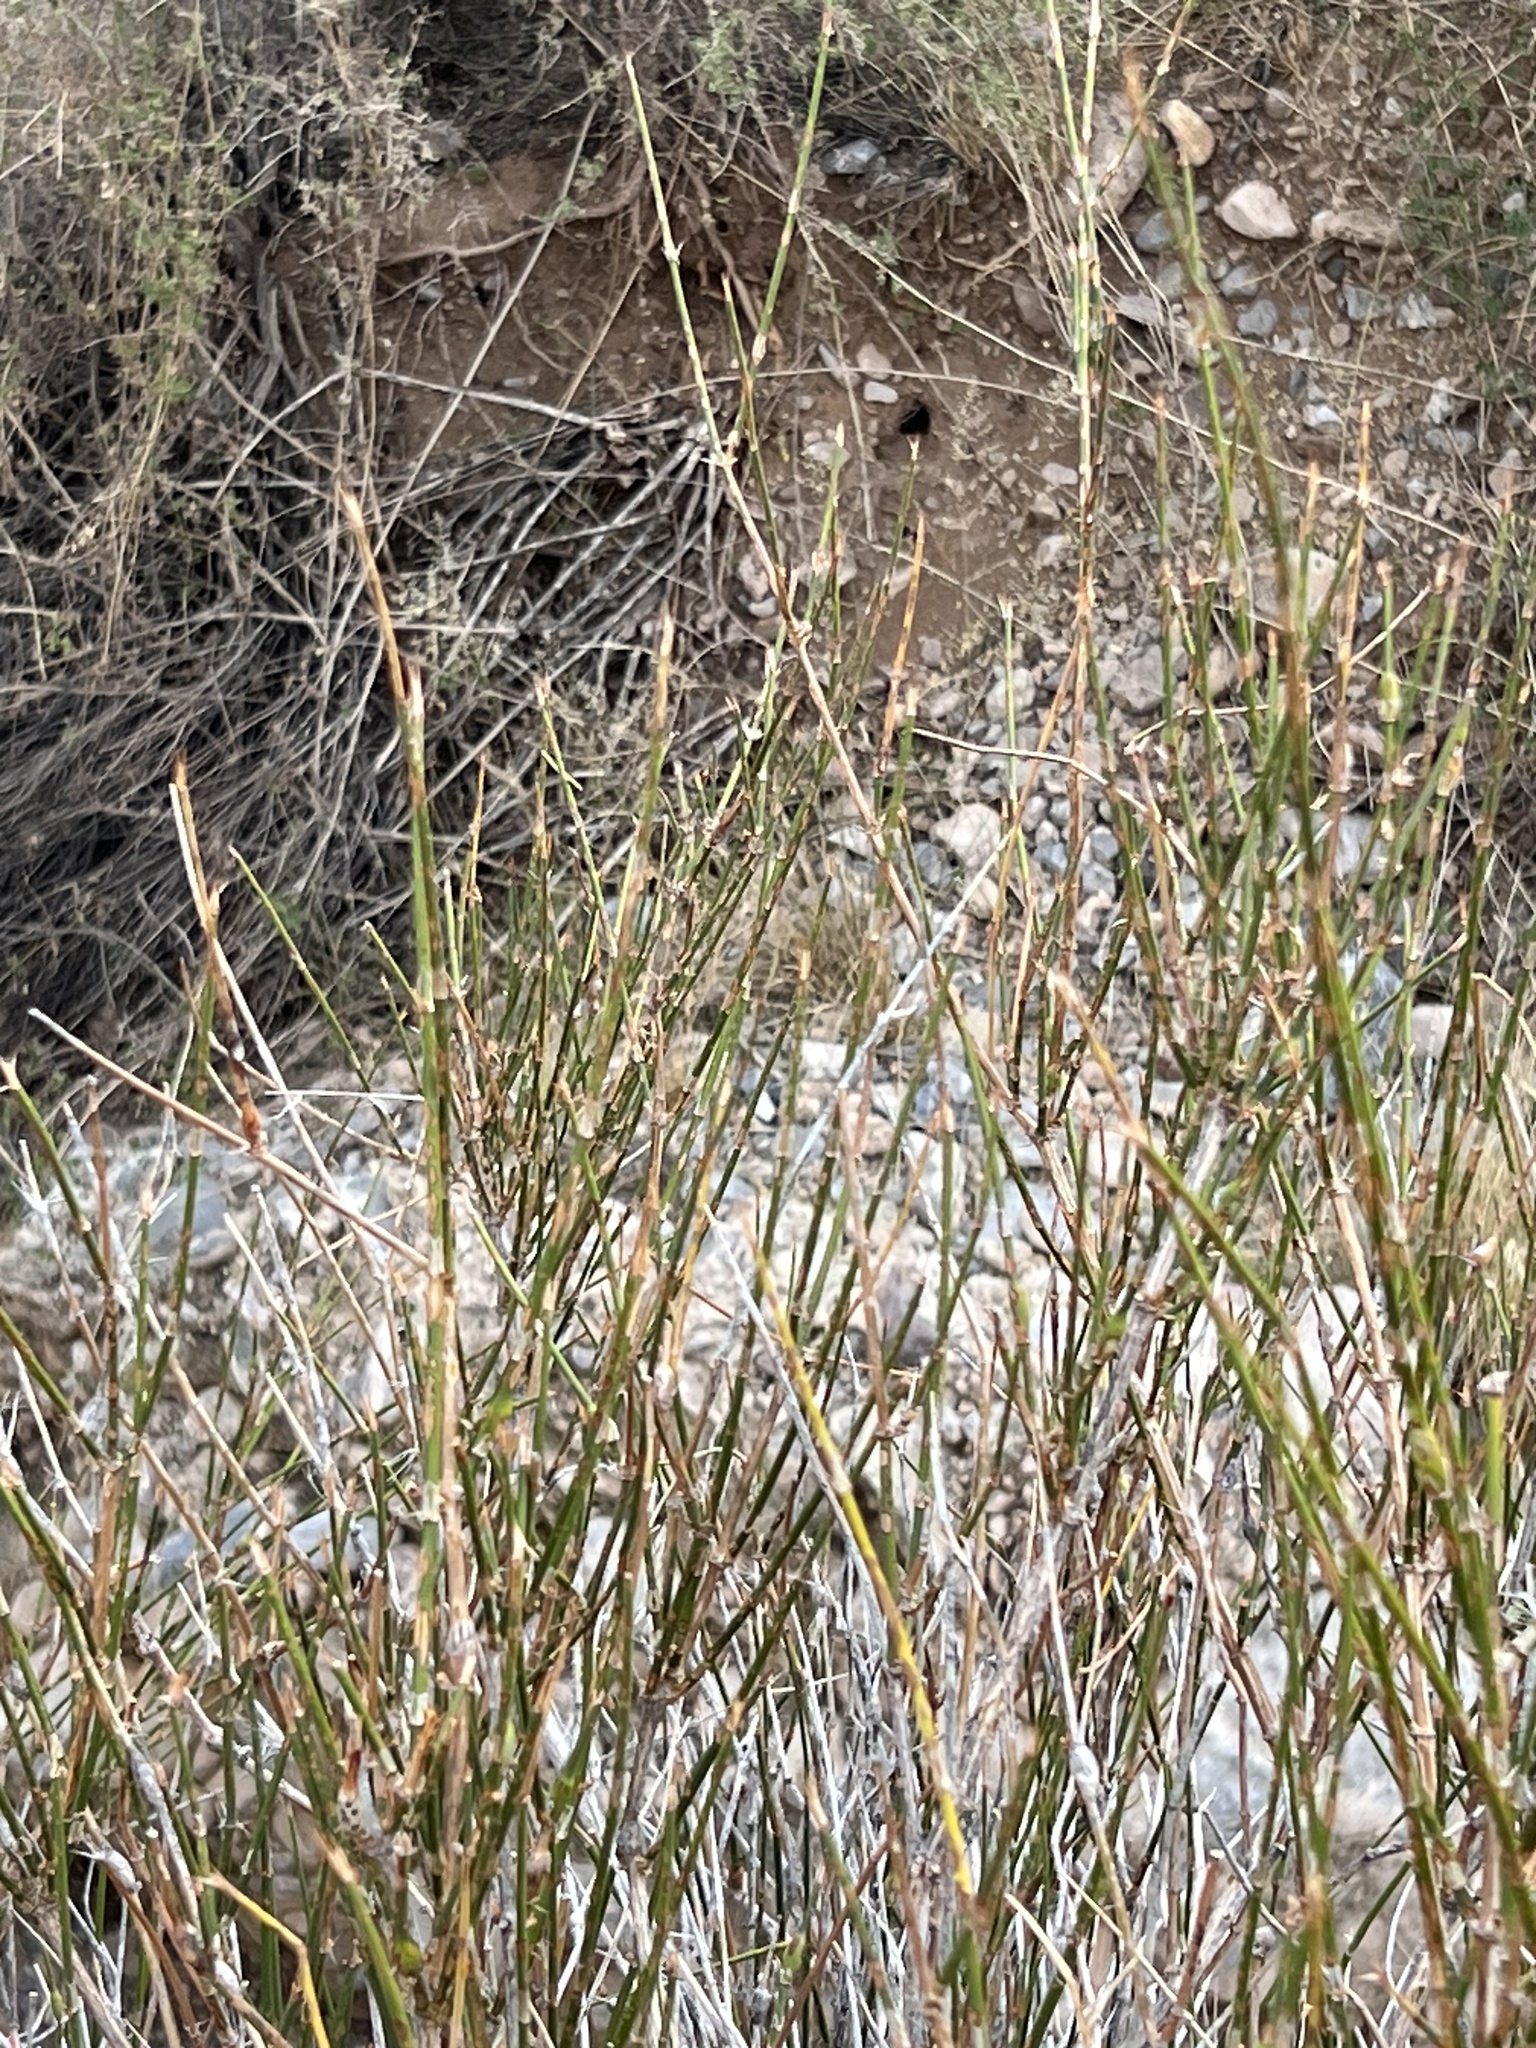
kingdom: Plantae
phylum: Tracheophyta
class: Gnetopsida
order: Ephedrales
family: Ephedraceae
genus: Ephedra
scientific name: Ephedra trifurca
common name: Mexican-tea
